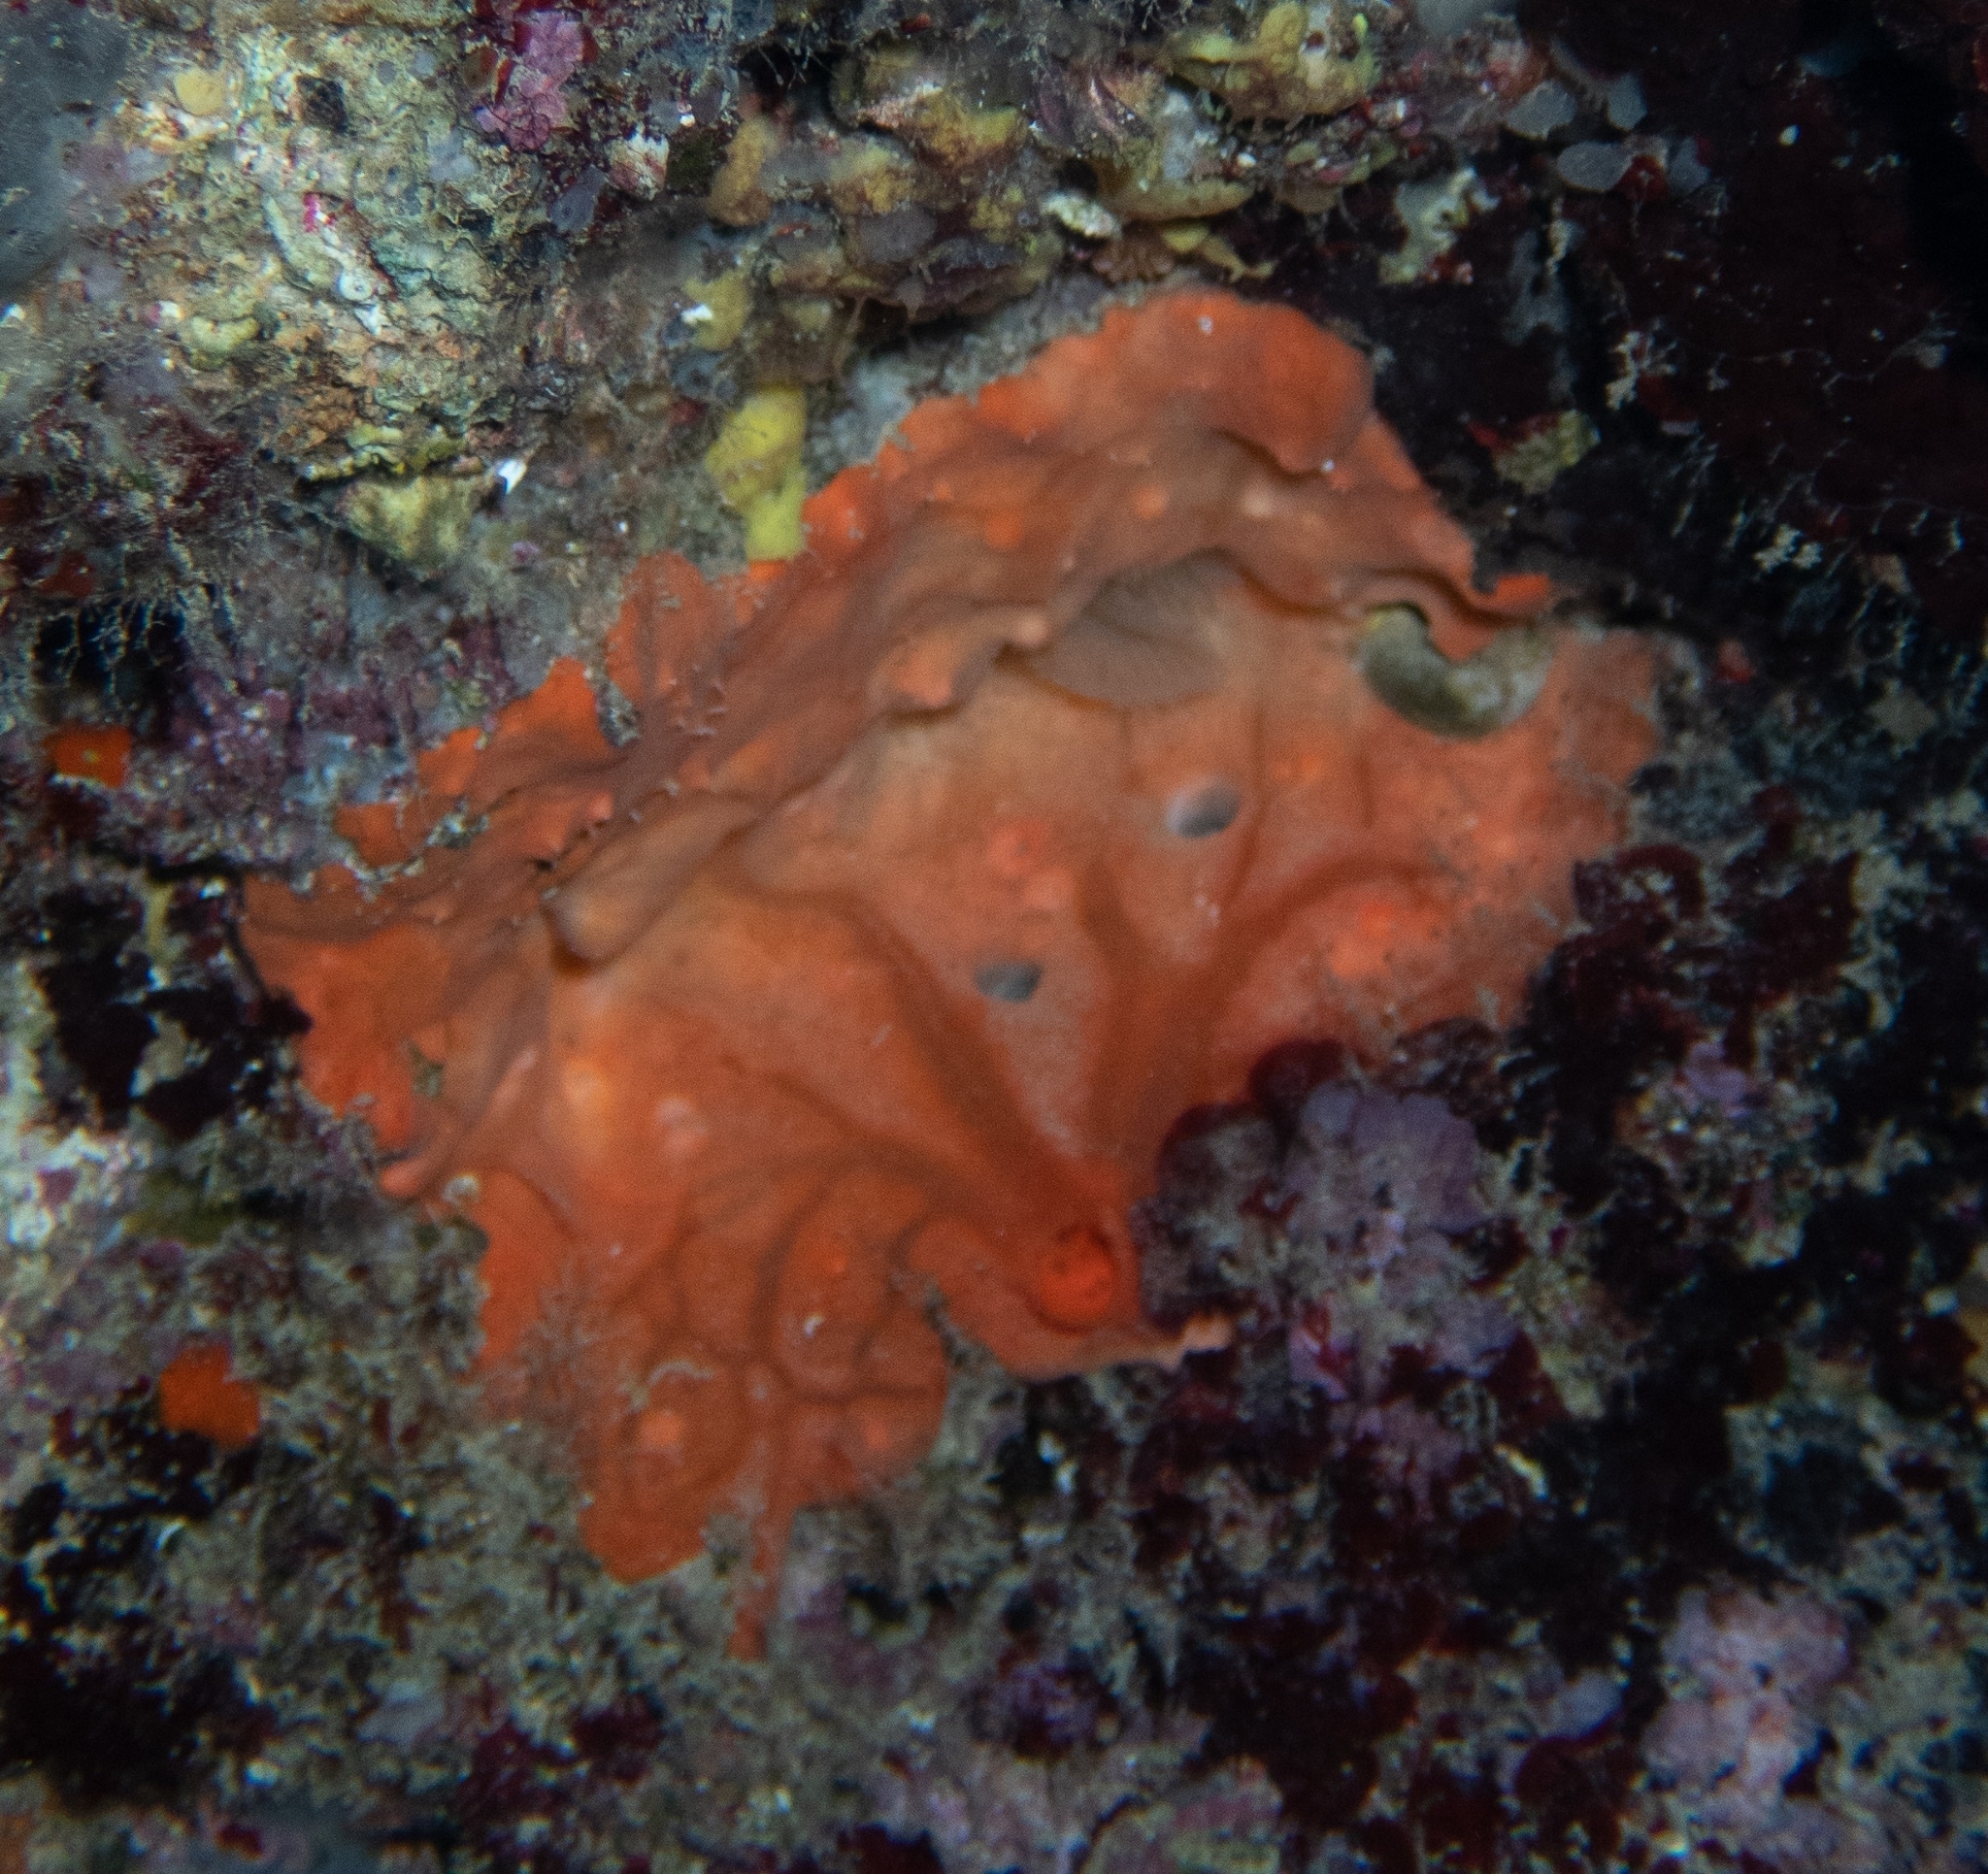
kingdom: Animalia
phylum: Porifera
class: Demospongiae
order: Clionaida
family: Spirastrellidae
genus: Spirastrella
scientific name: Spirastrella cunctatrix
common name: Encrusting orange sponge
